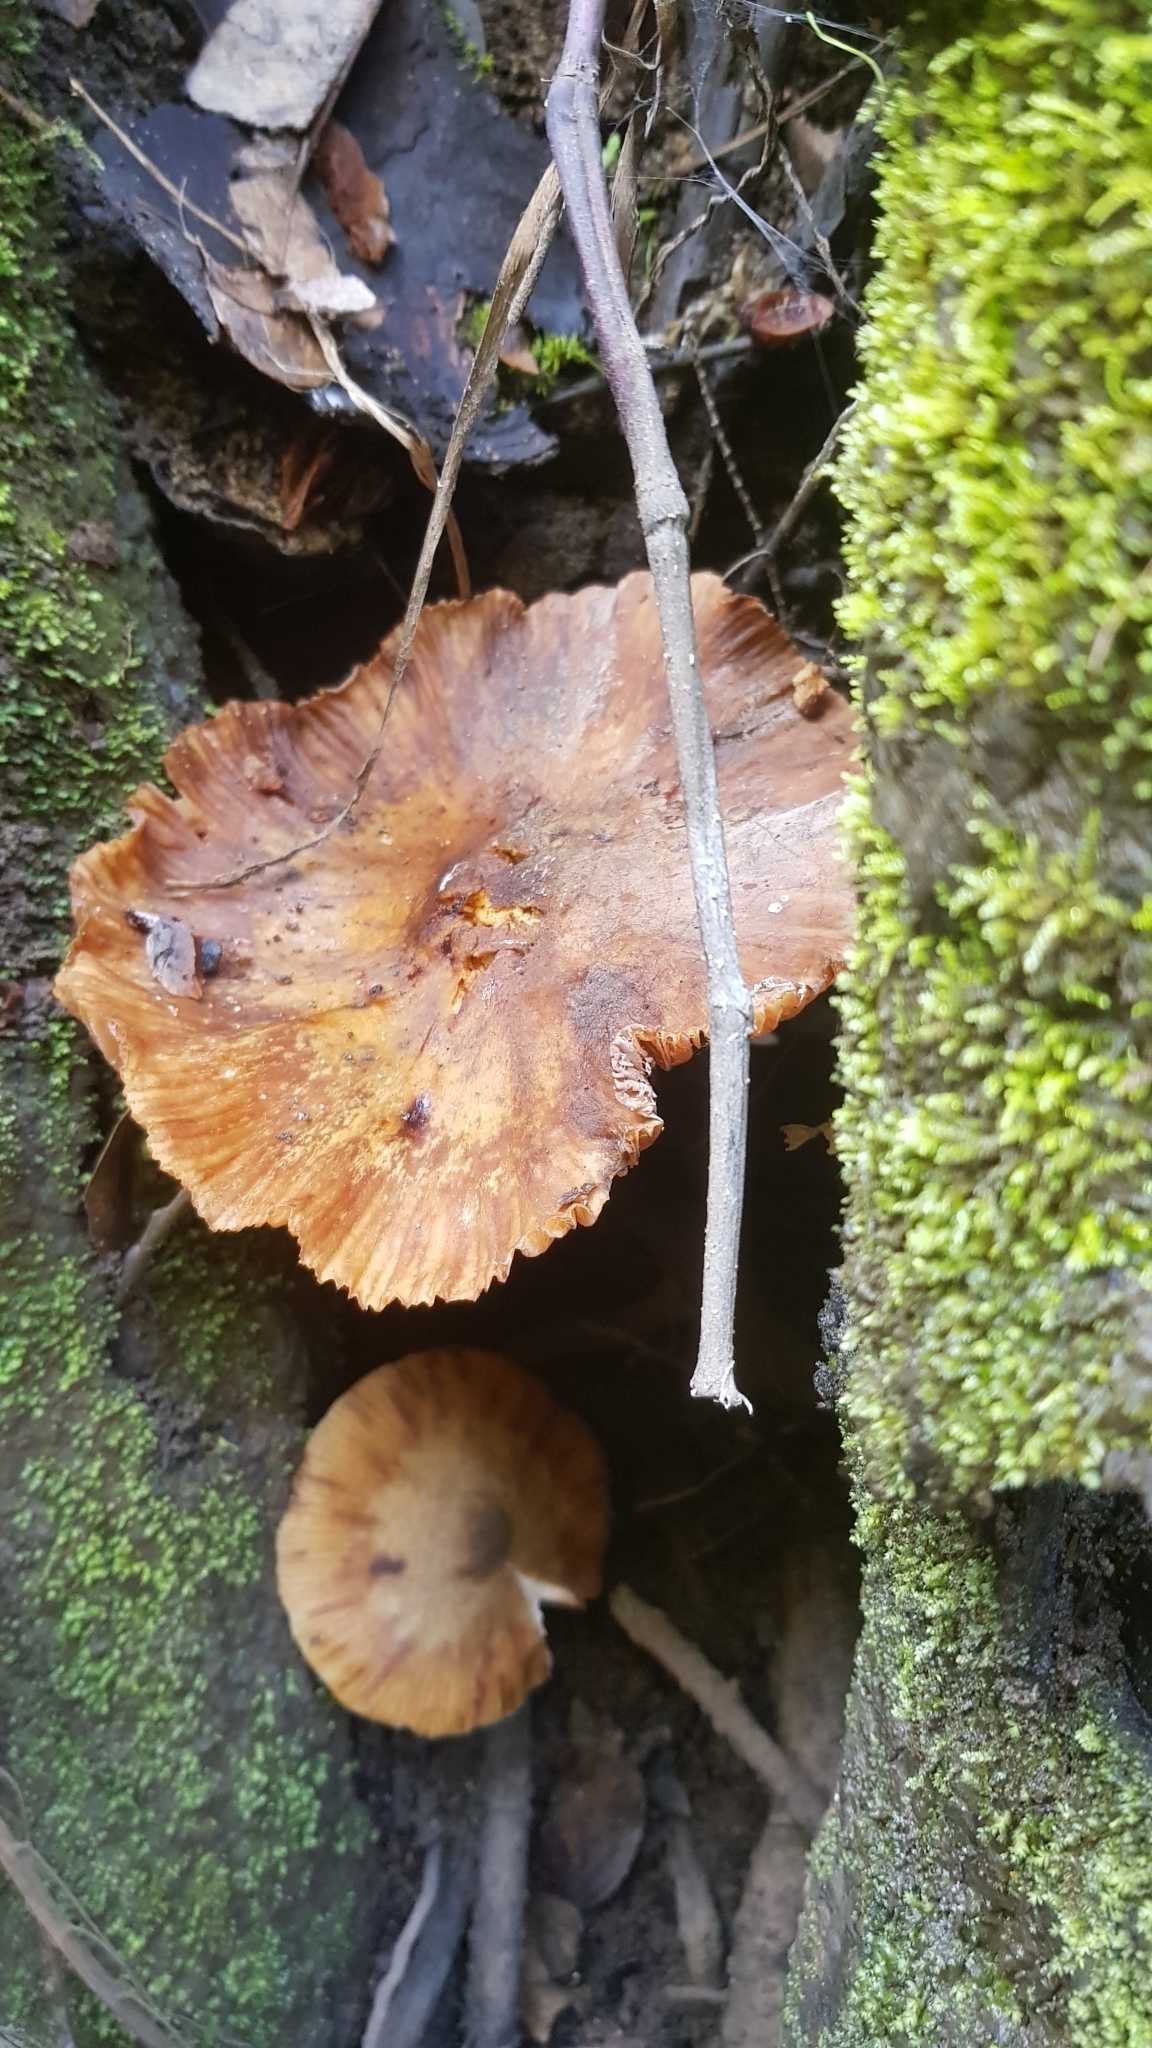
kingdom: Fungi
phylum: Basidiomycota
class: Agaricomycetes
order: Agaricales
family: Physalacriaceae
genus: Armillaria
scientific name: Armillaria novae-zelandiae
